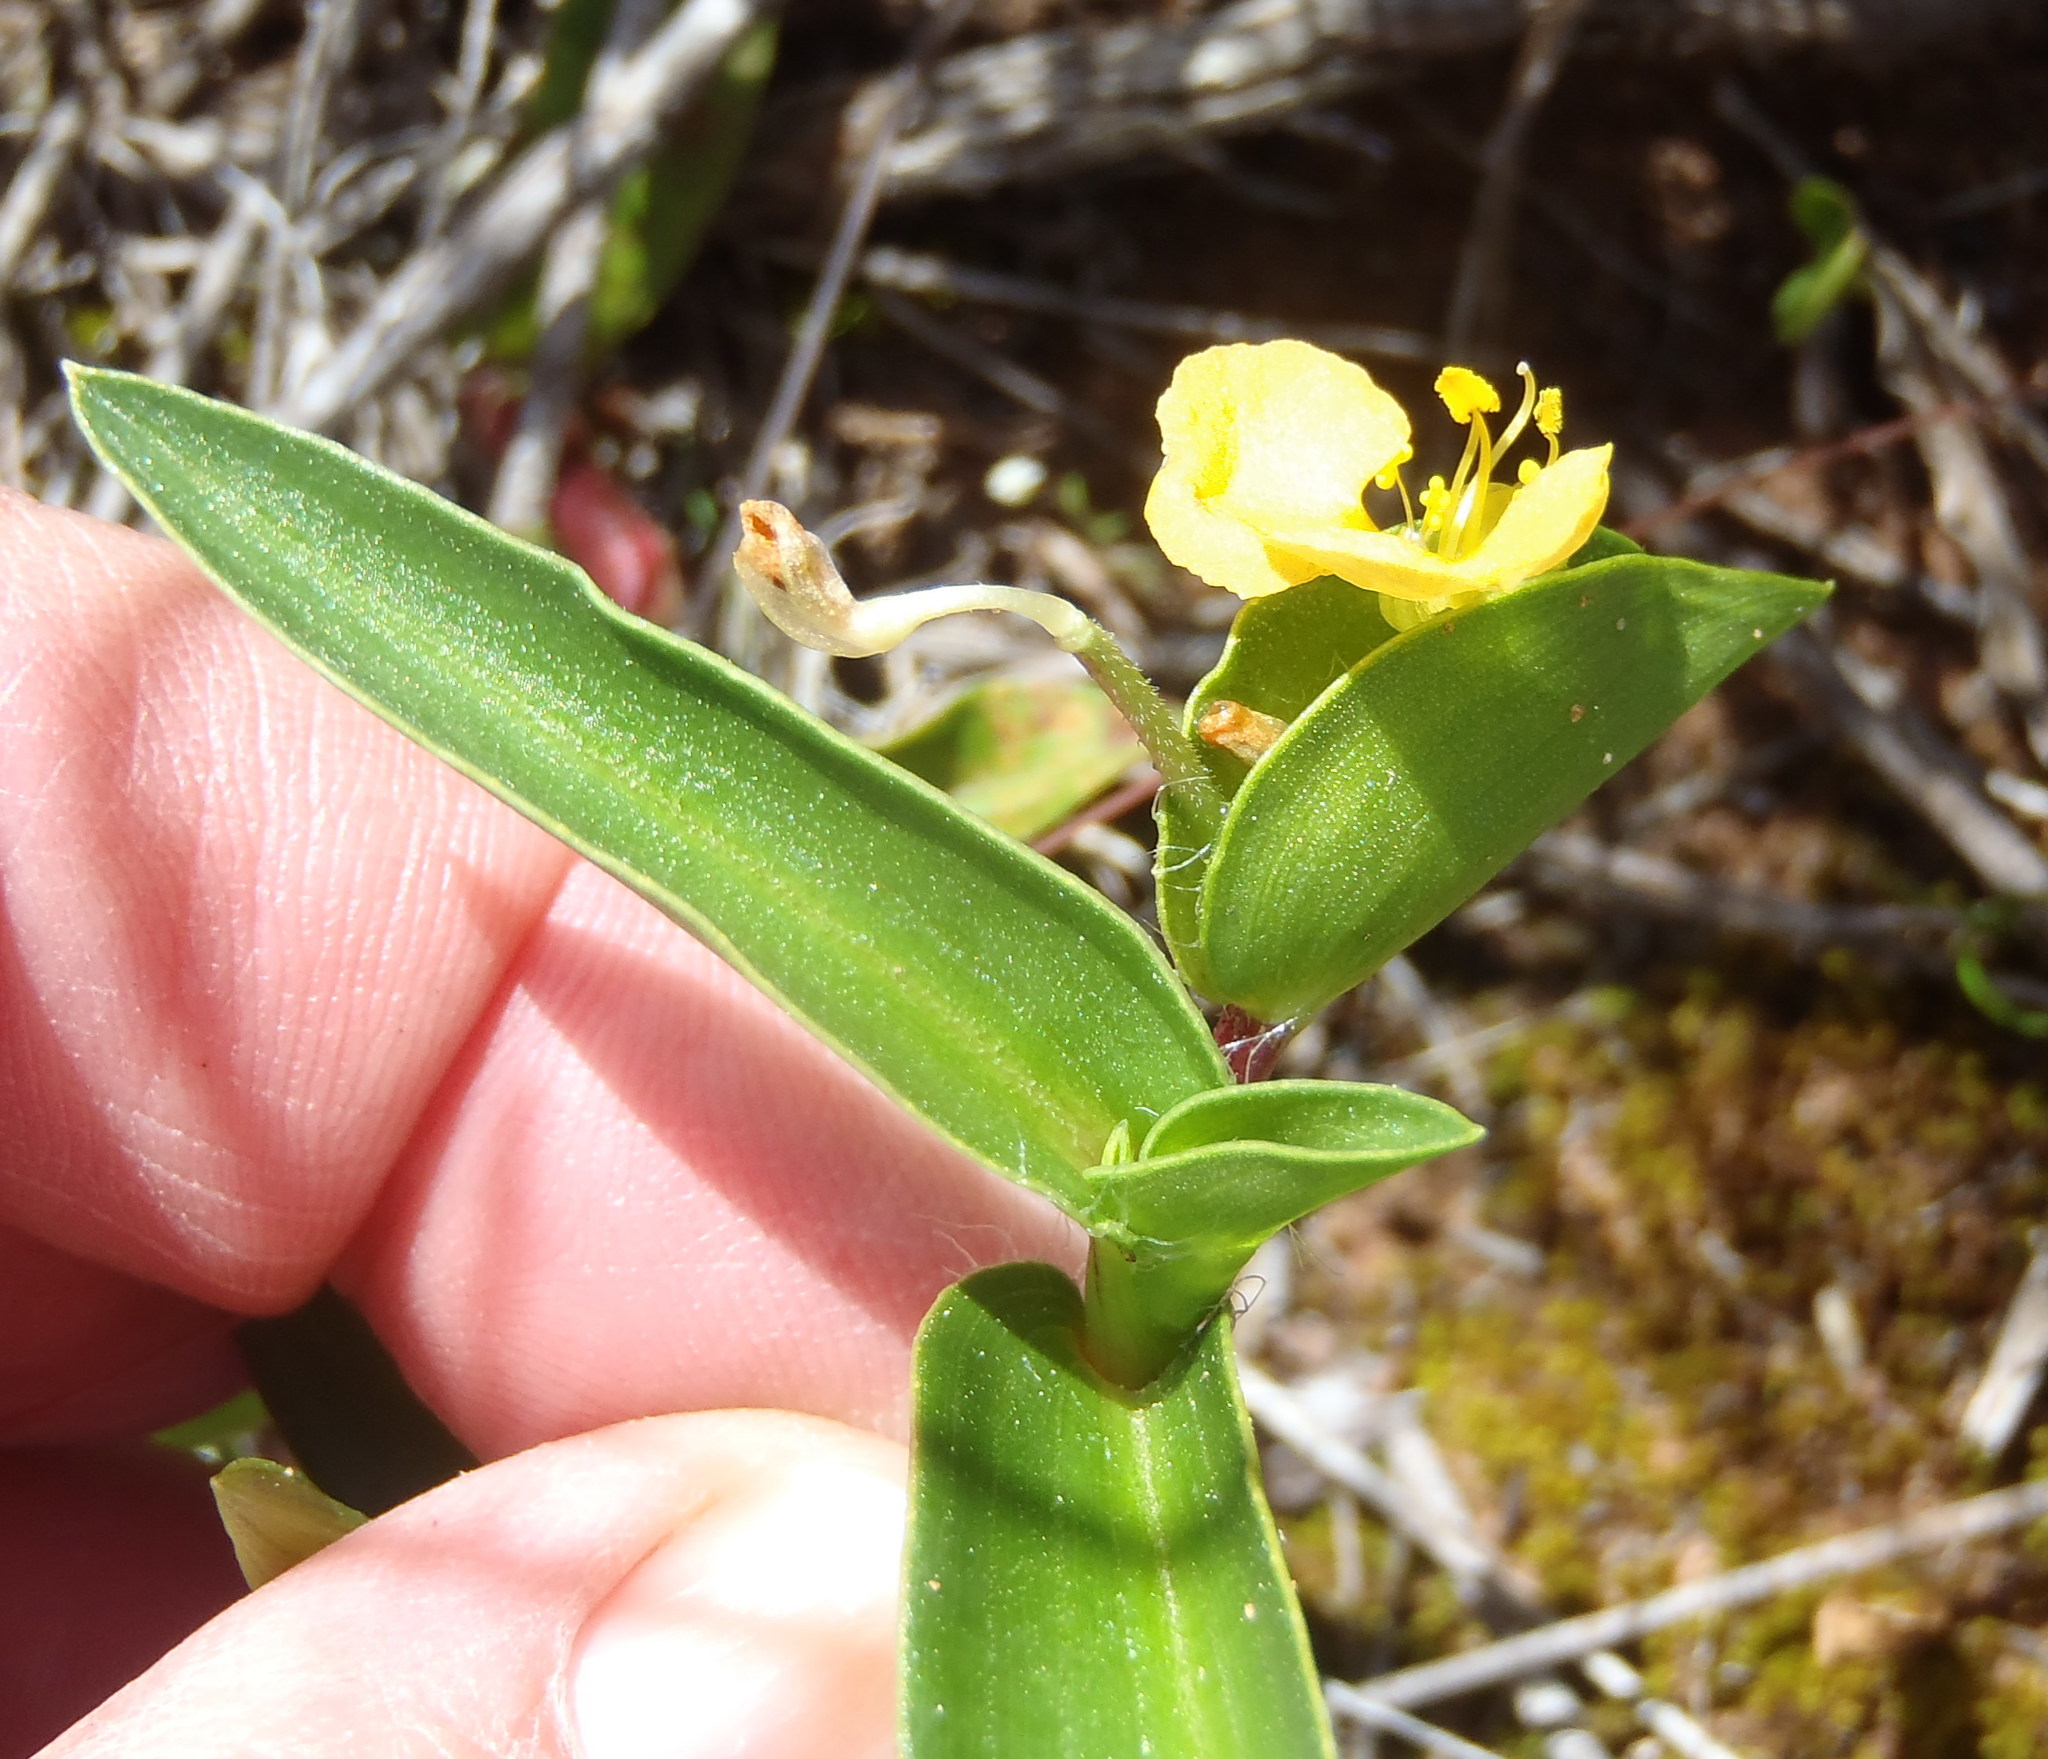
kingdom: Plantae
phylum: Tracheophyta
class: Liliopsida
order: Commelinales
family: Commelinaceae
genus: Commelina
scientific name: Commelina africana
